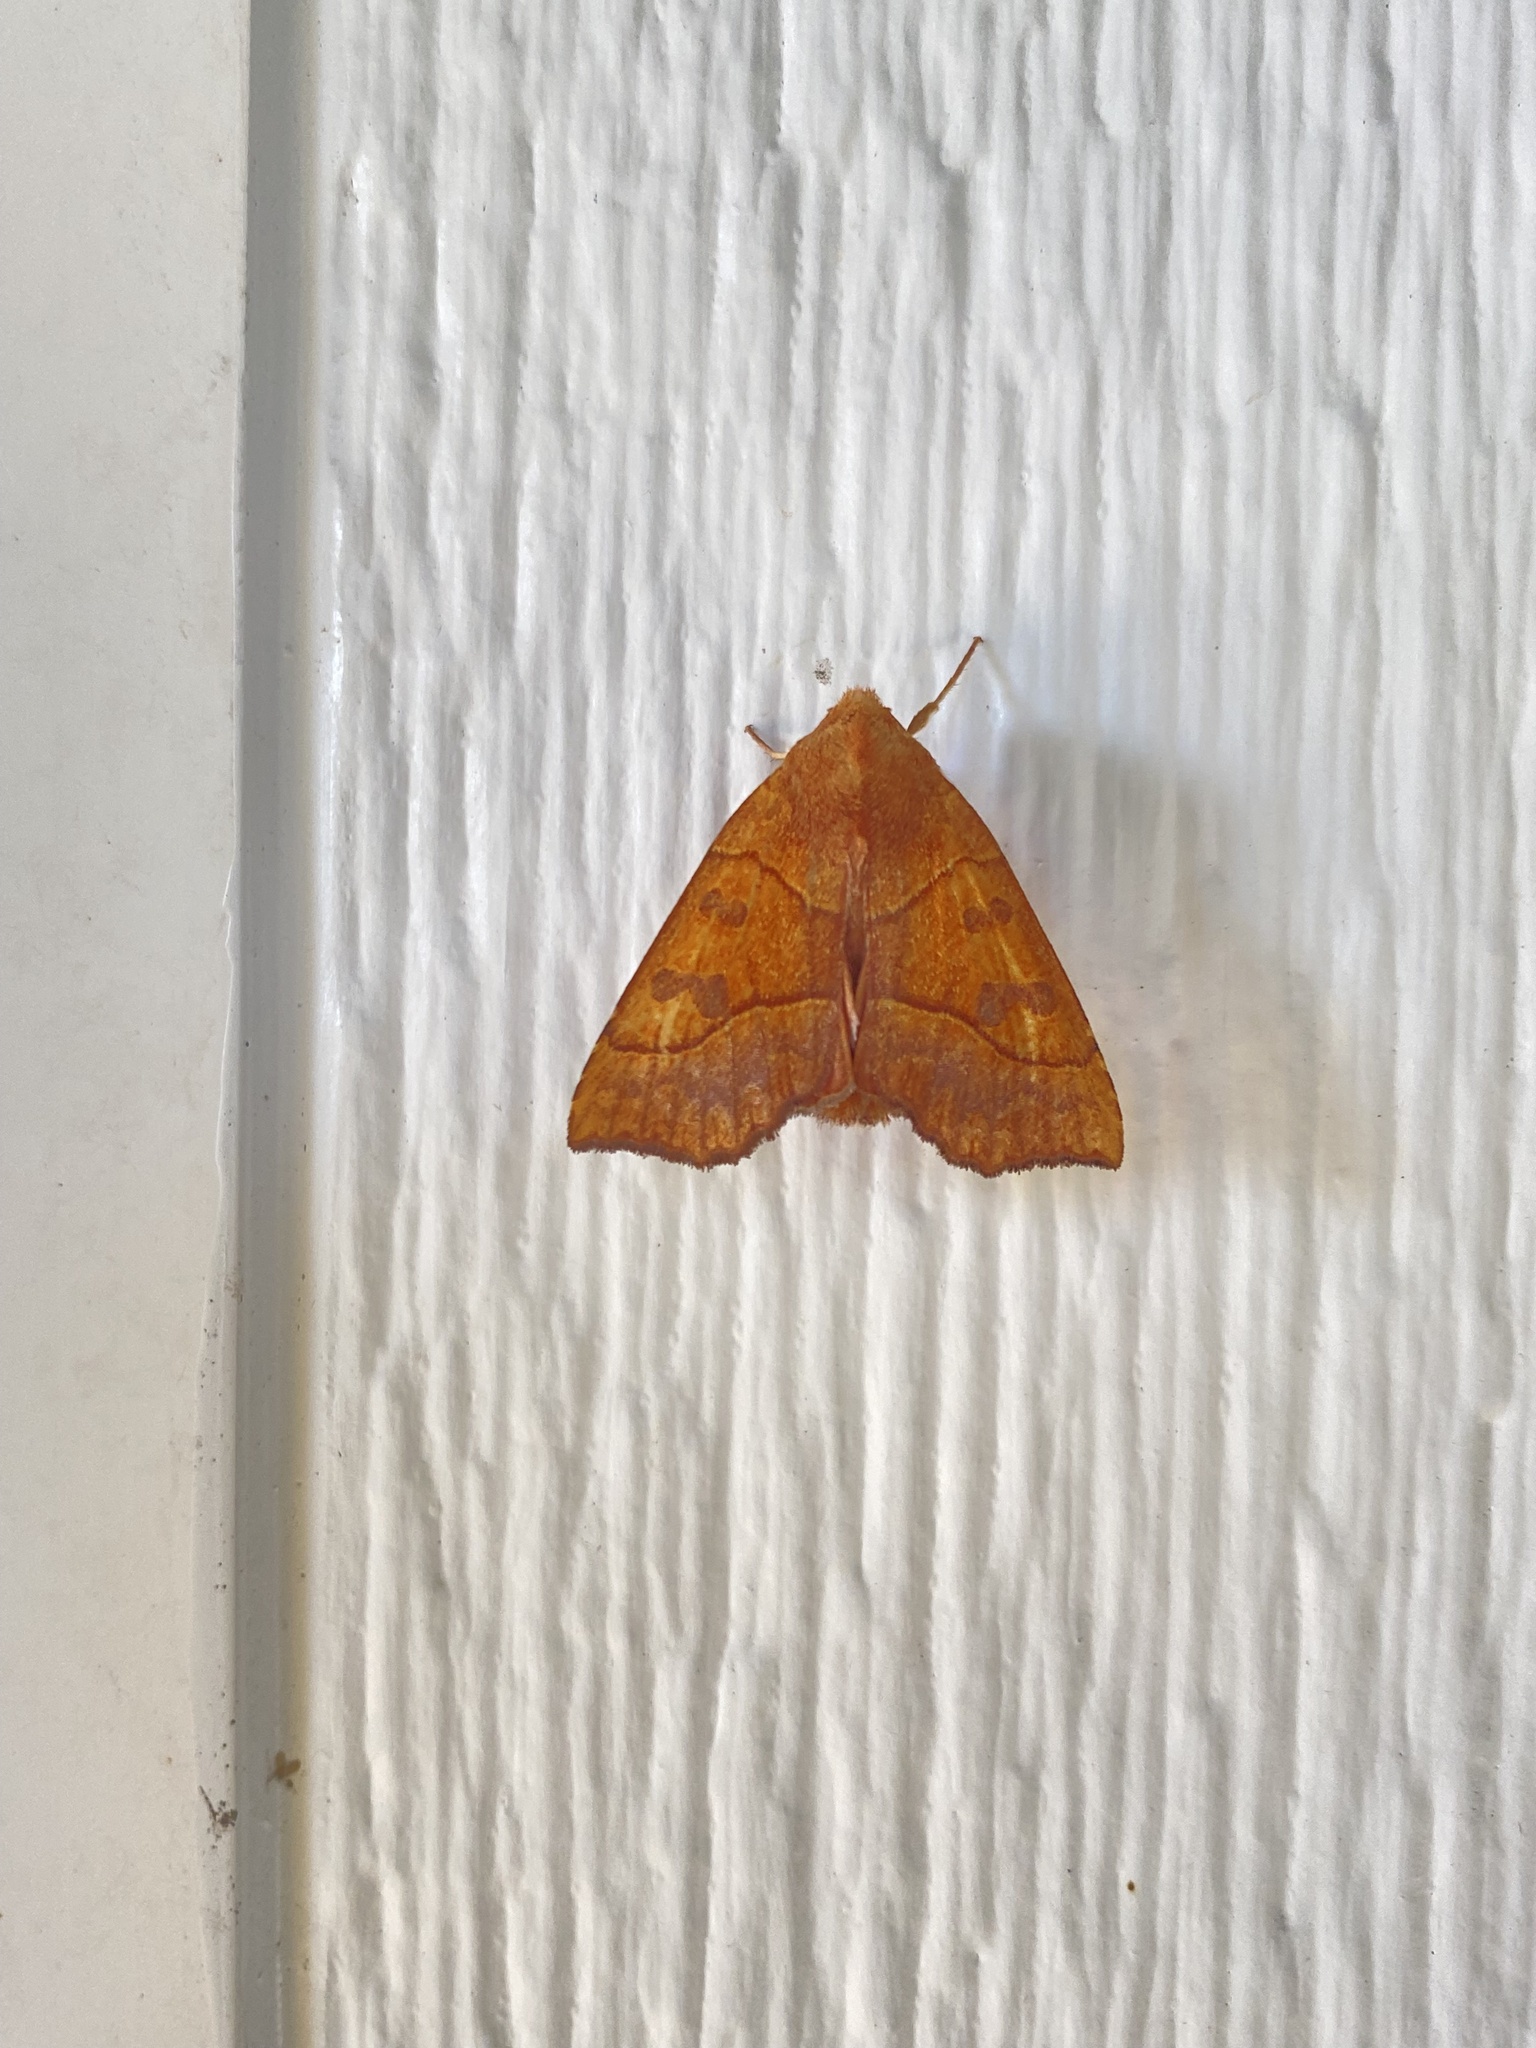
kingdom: Animalia
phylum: Arthropoda
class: Insecta
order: Lepidoptera
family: Noctuidae
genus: Eucirroedia
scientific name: Eucirroedia pampina
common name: Scalloped sallow
